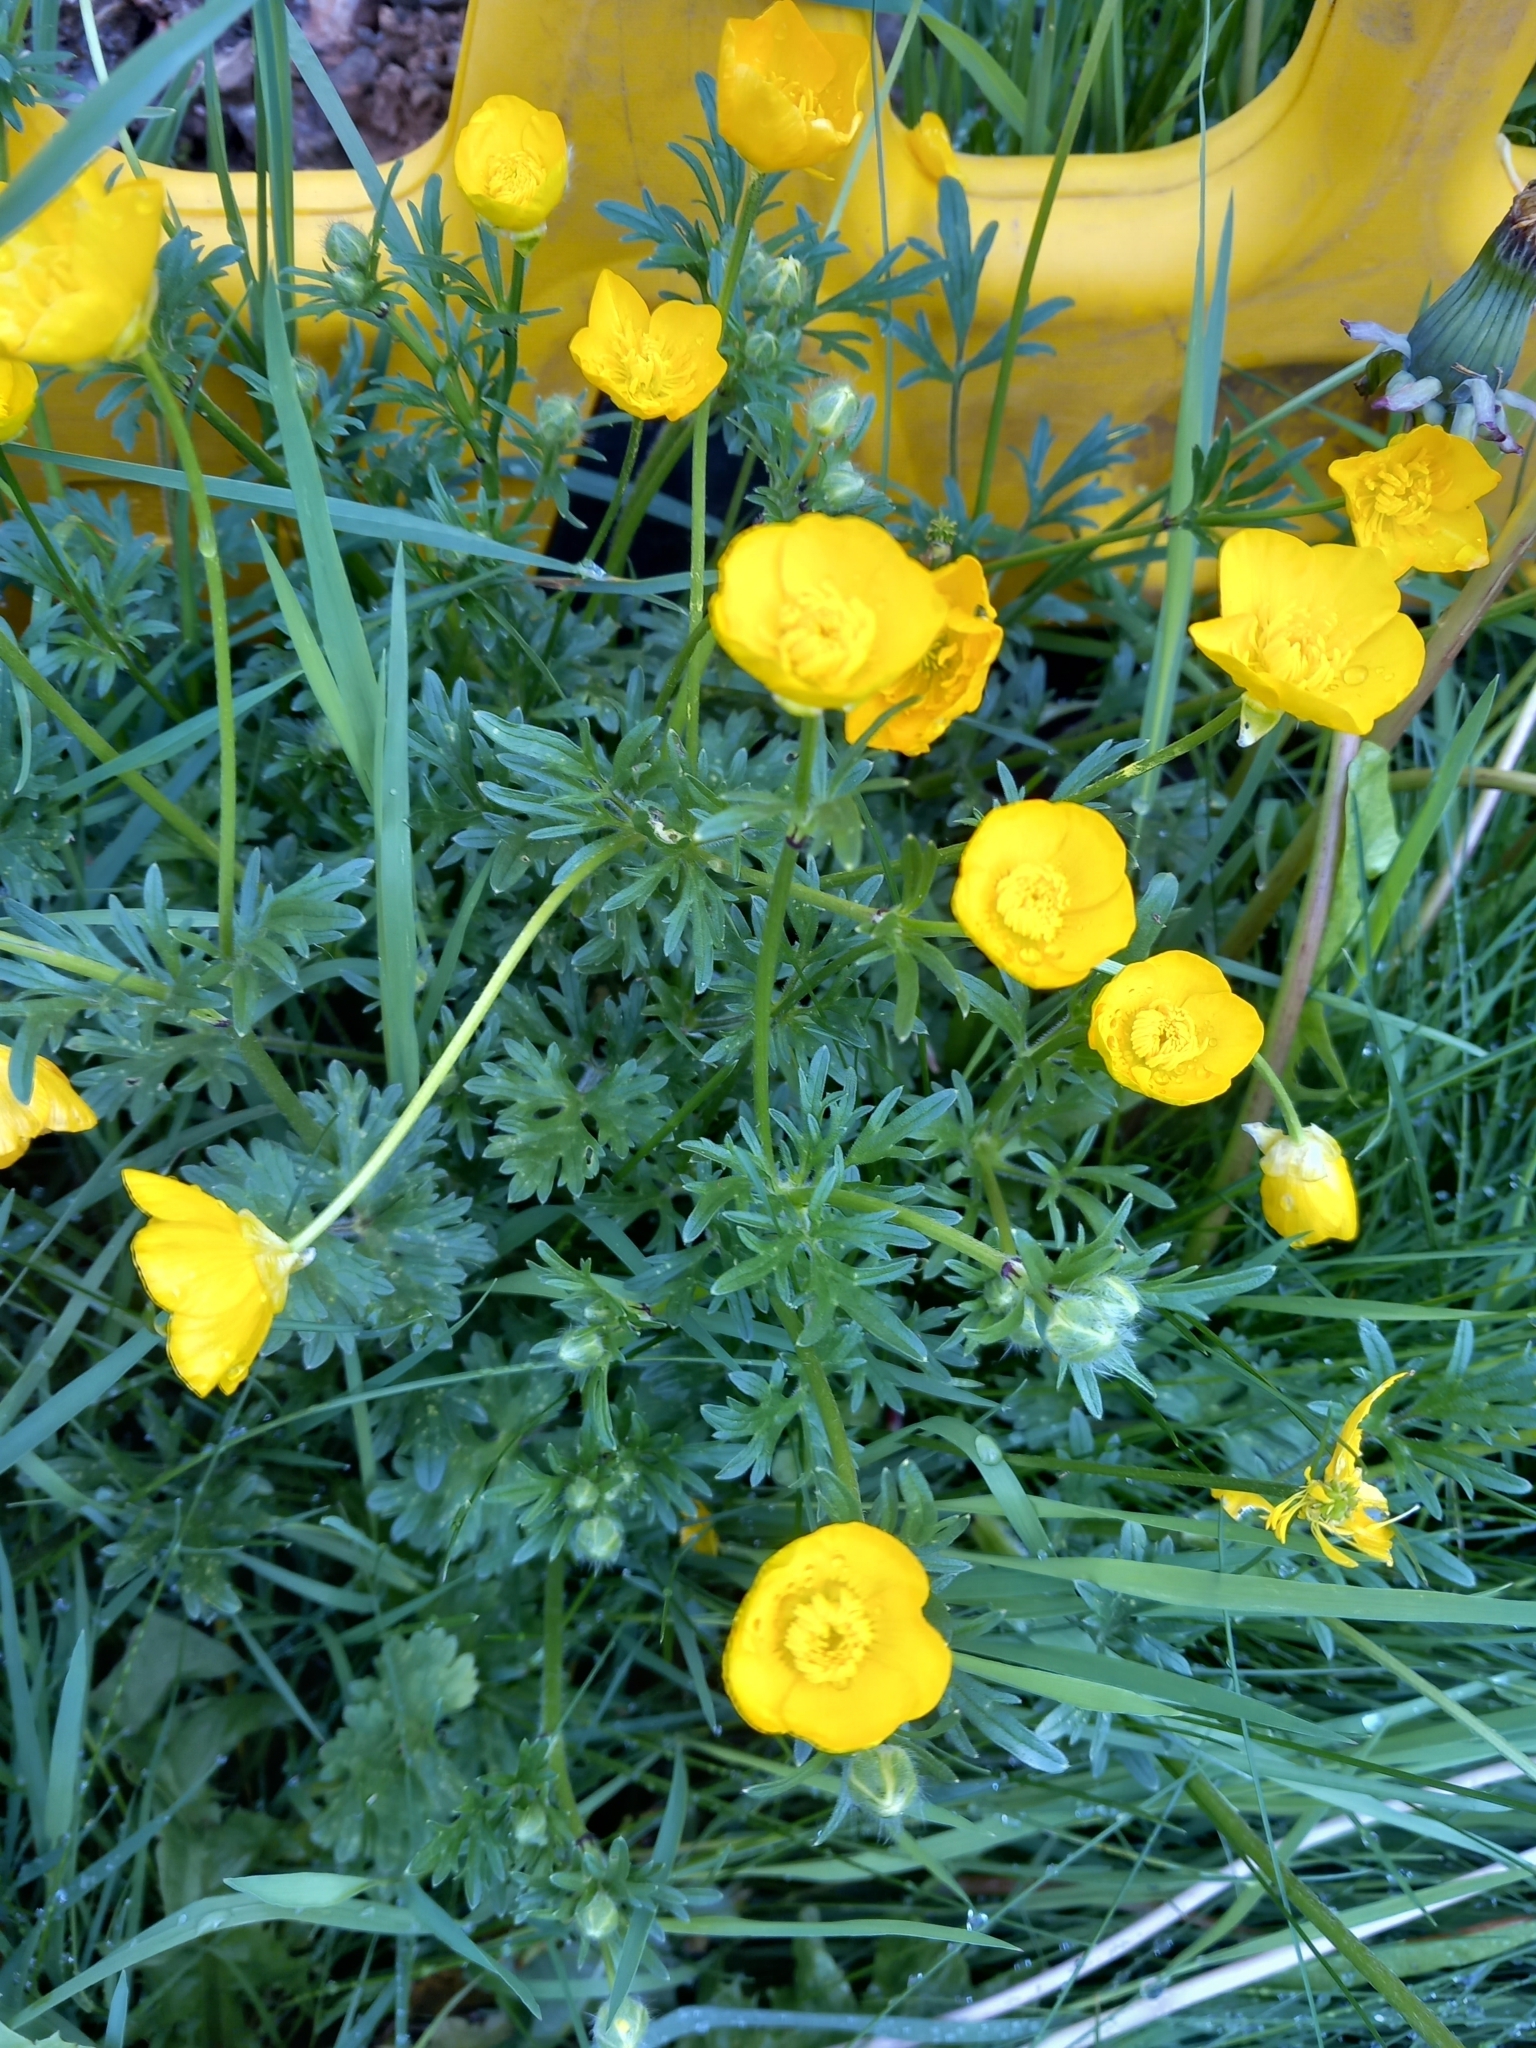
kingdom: Plantae
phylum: Tracheophyta
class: Magnoliopsida
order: Ranunculales
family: Ranunculaceae
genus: Ranunculus
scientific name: Ranunculus bulbosus
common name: Bulbous buttercup
